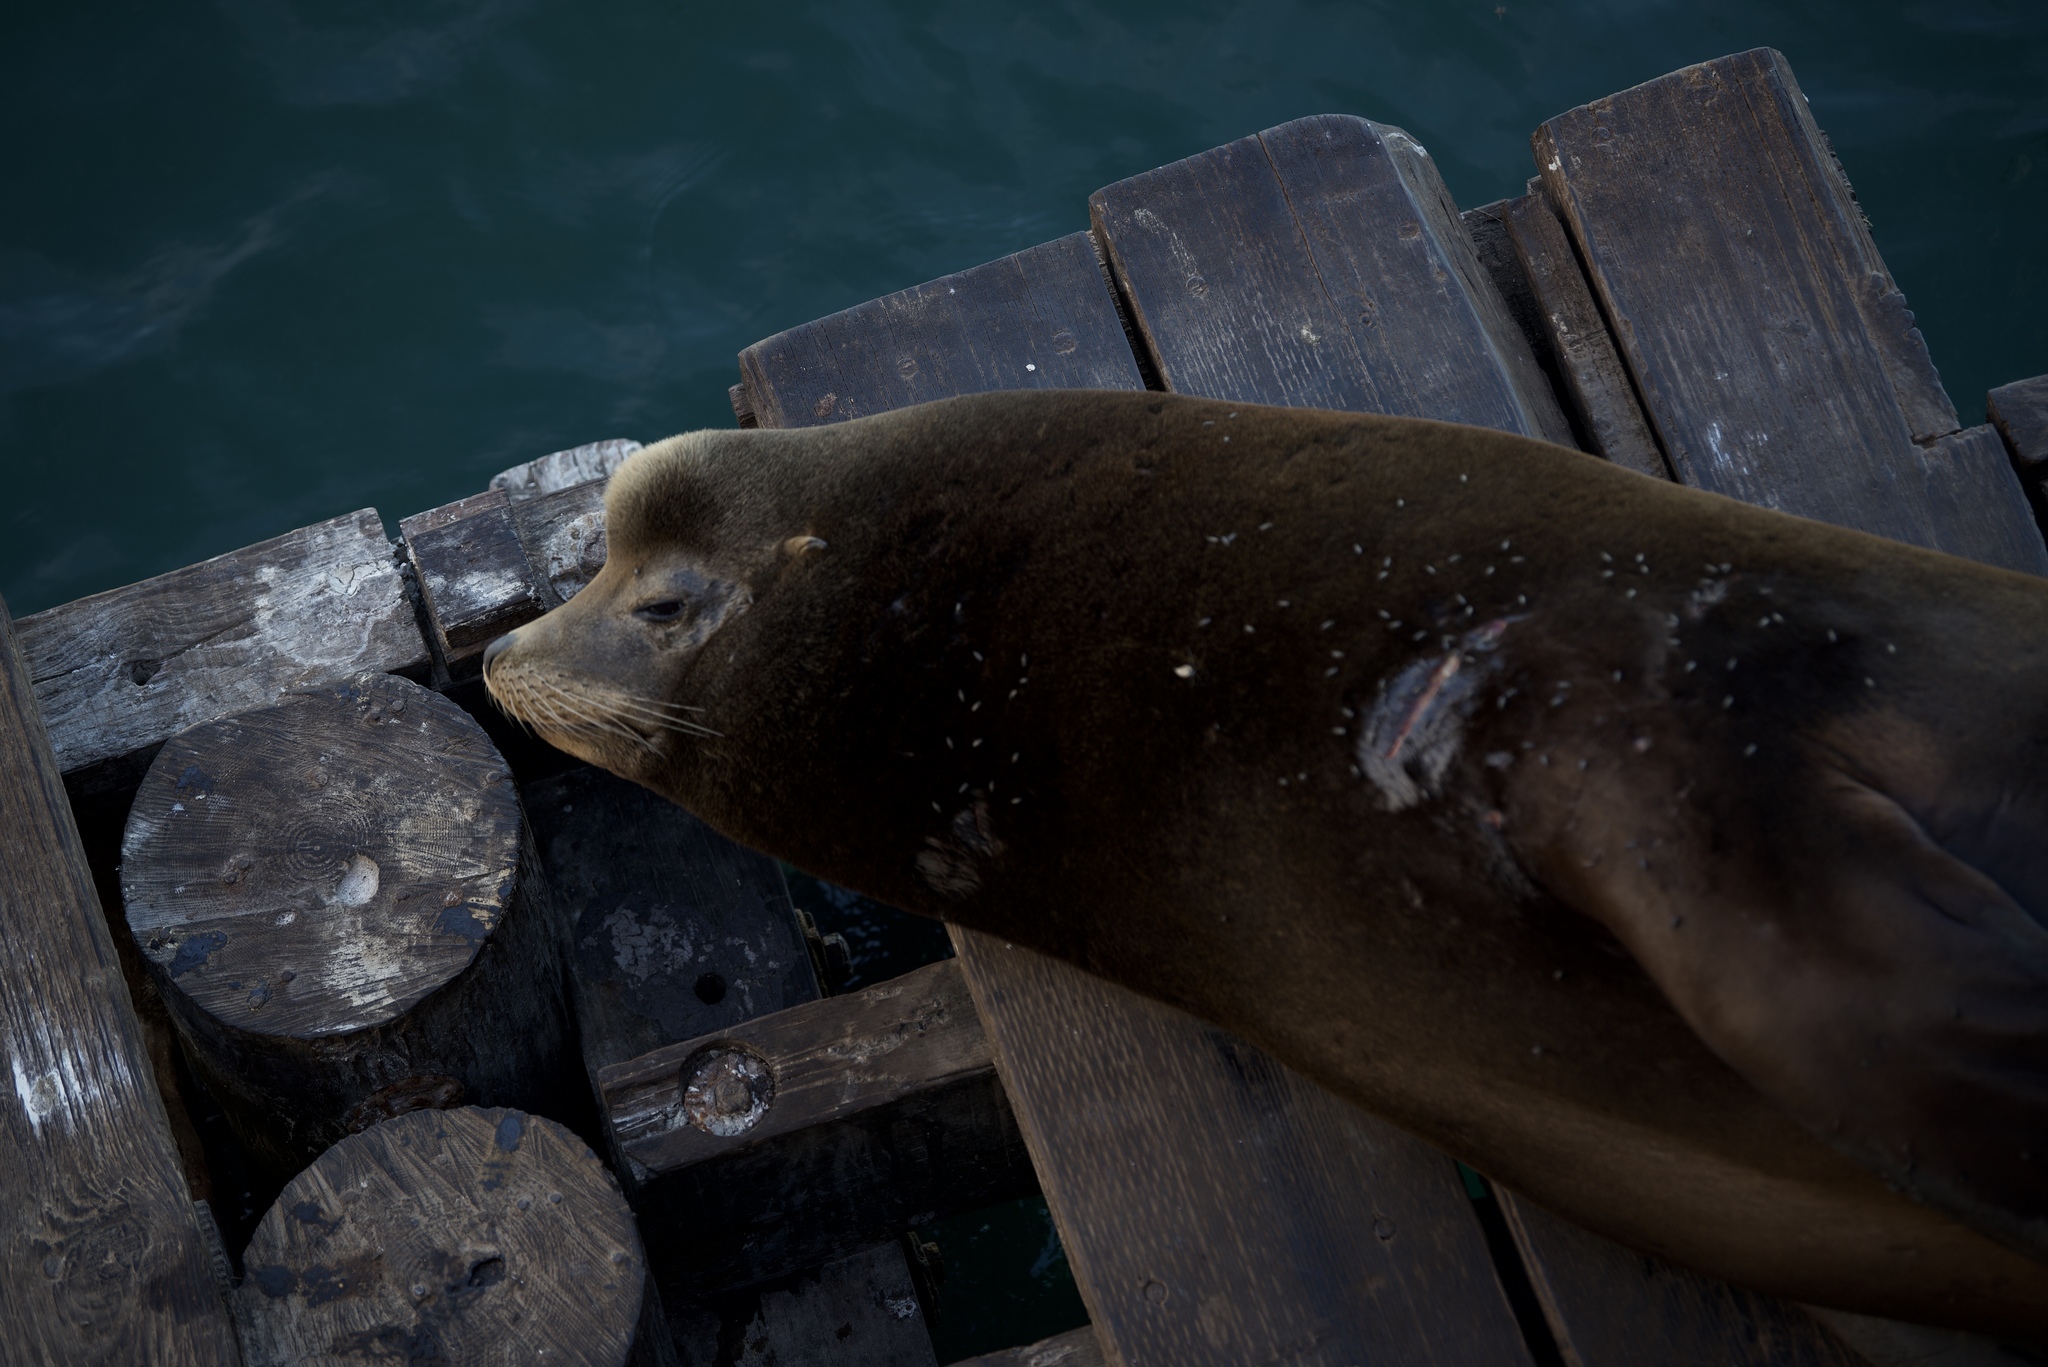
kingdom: Animalia
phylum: Chordata
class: Mammalia
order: Carnivora
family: Otariidae
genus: Zalophus
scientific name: Zalophus californianus
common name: California sea lion
